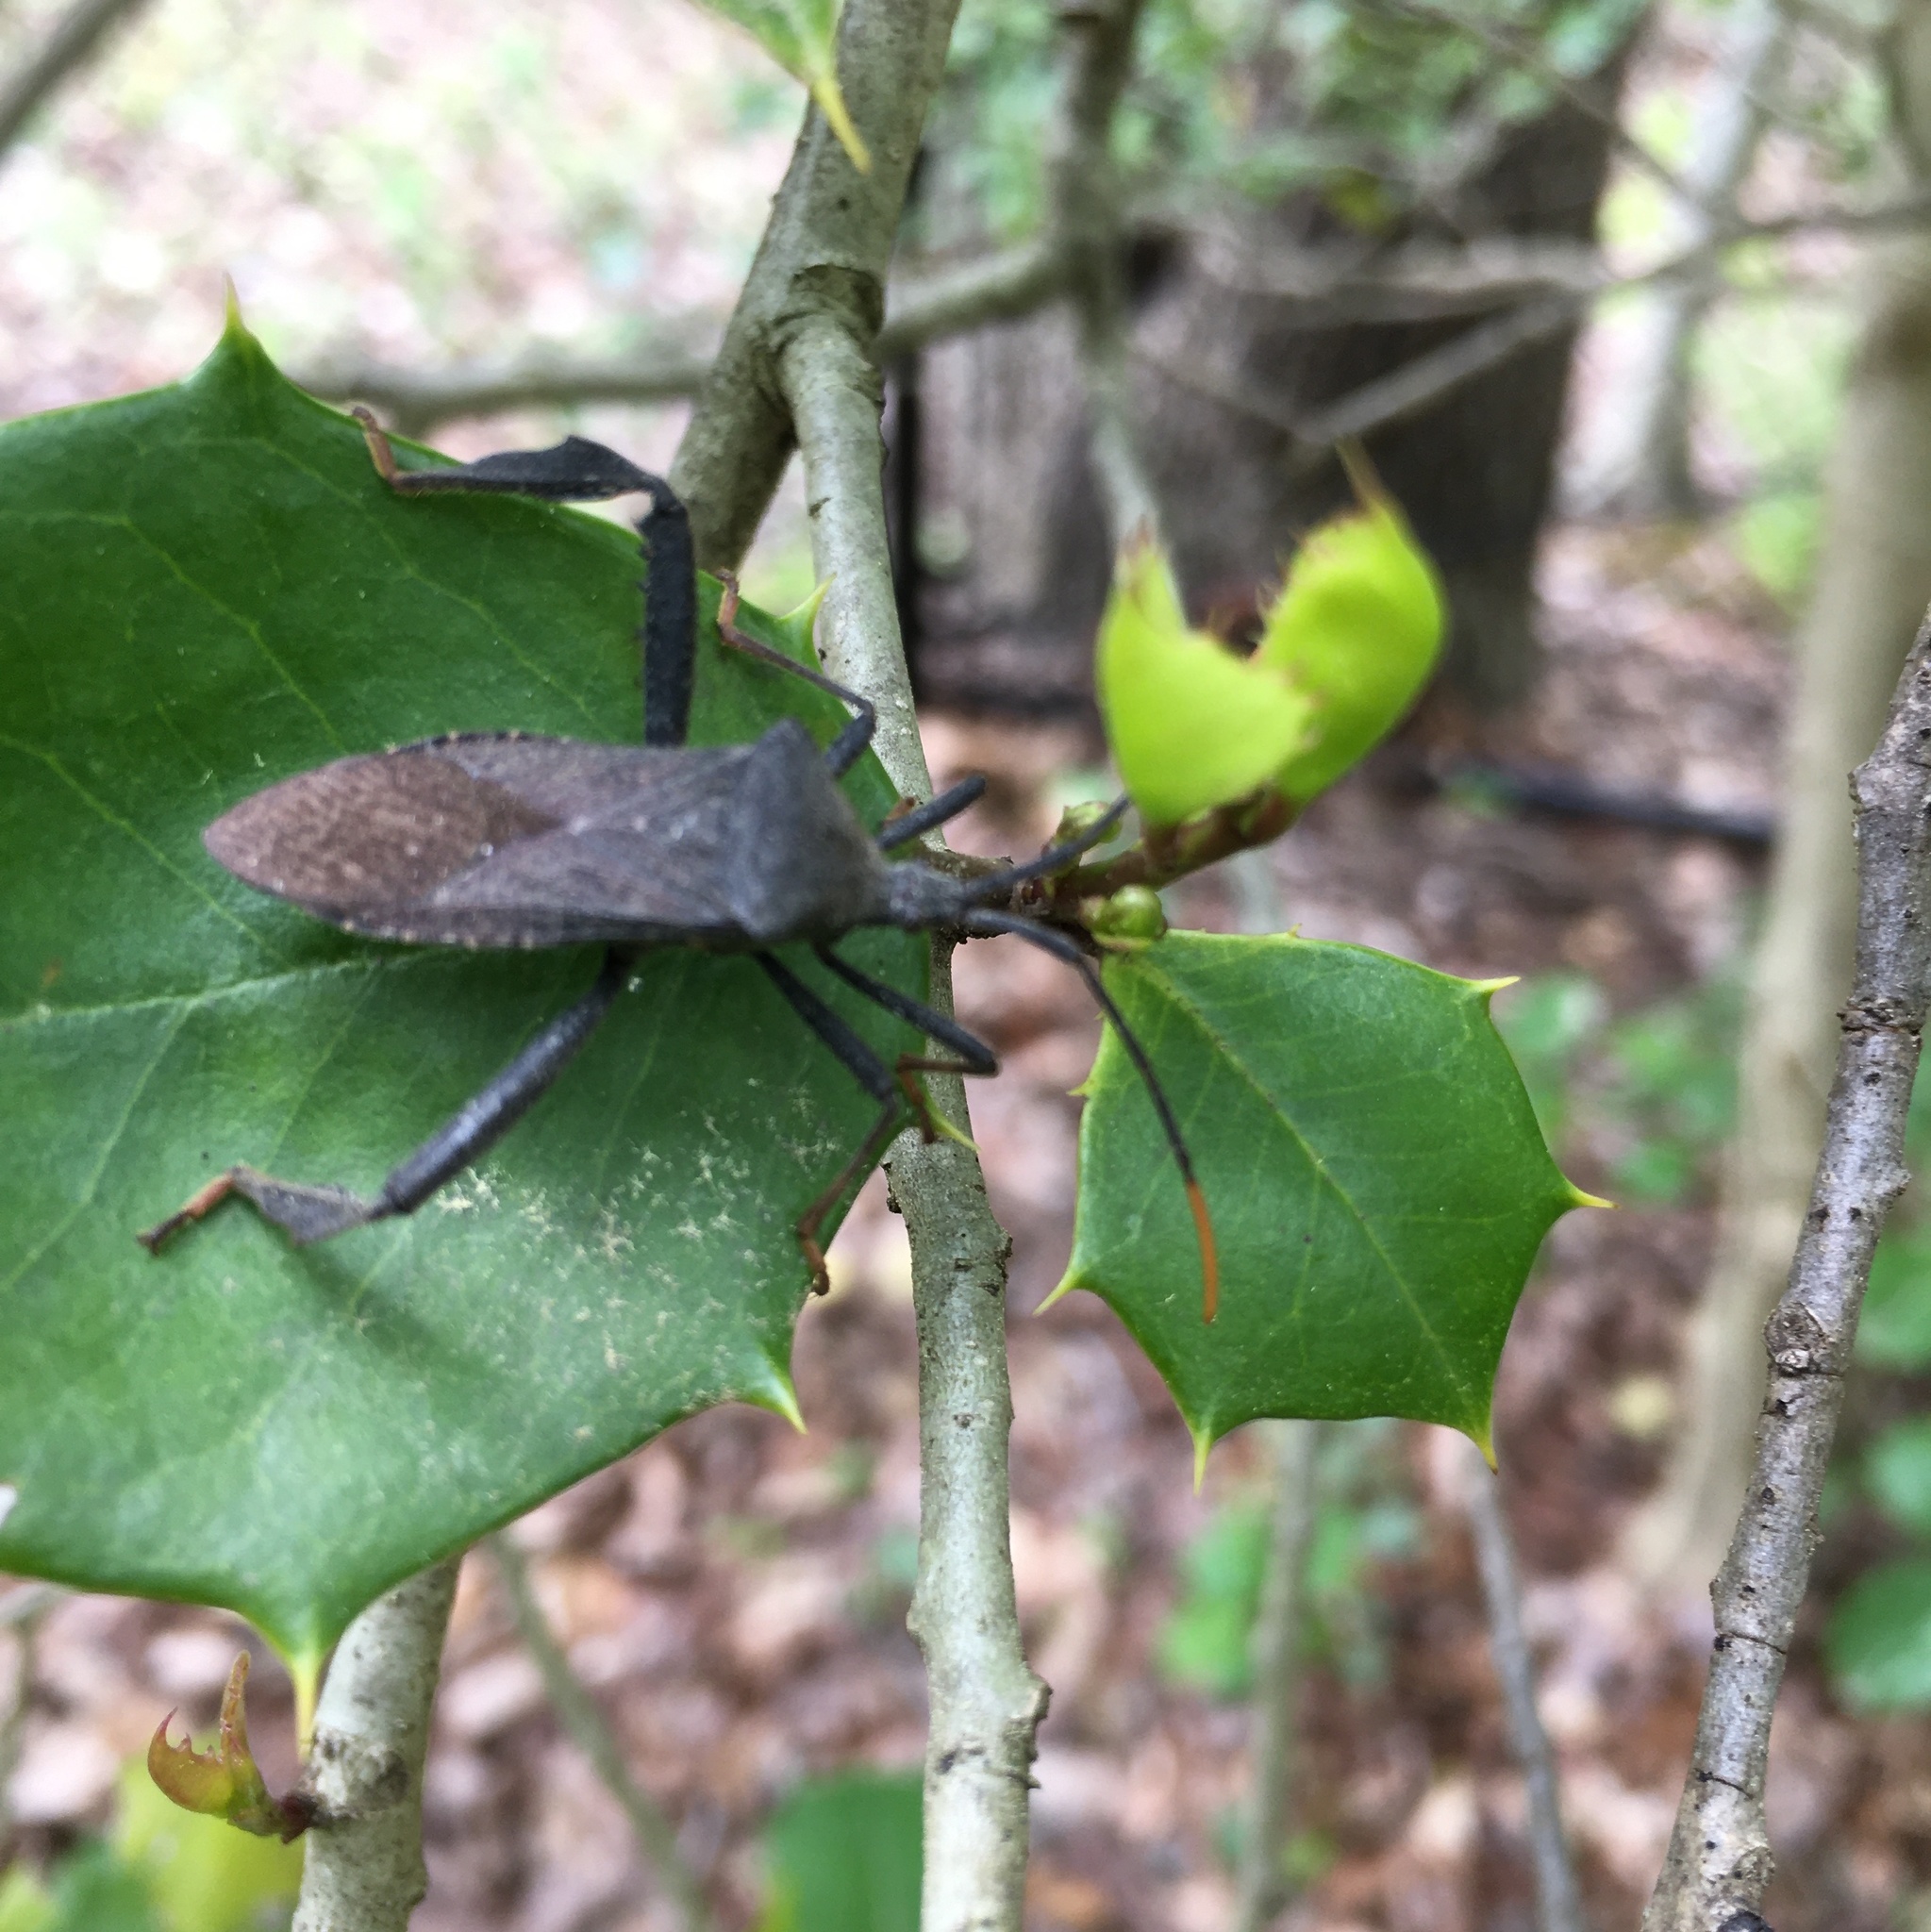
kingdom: Animalia
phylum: Arthropoda
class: Insecta
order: Hemiptera
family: Coreidae
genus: Acanthocephala
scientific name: Acanthocephala terminalis
